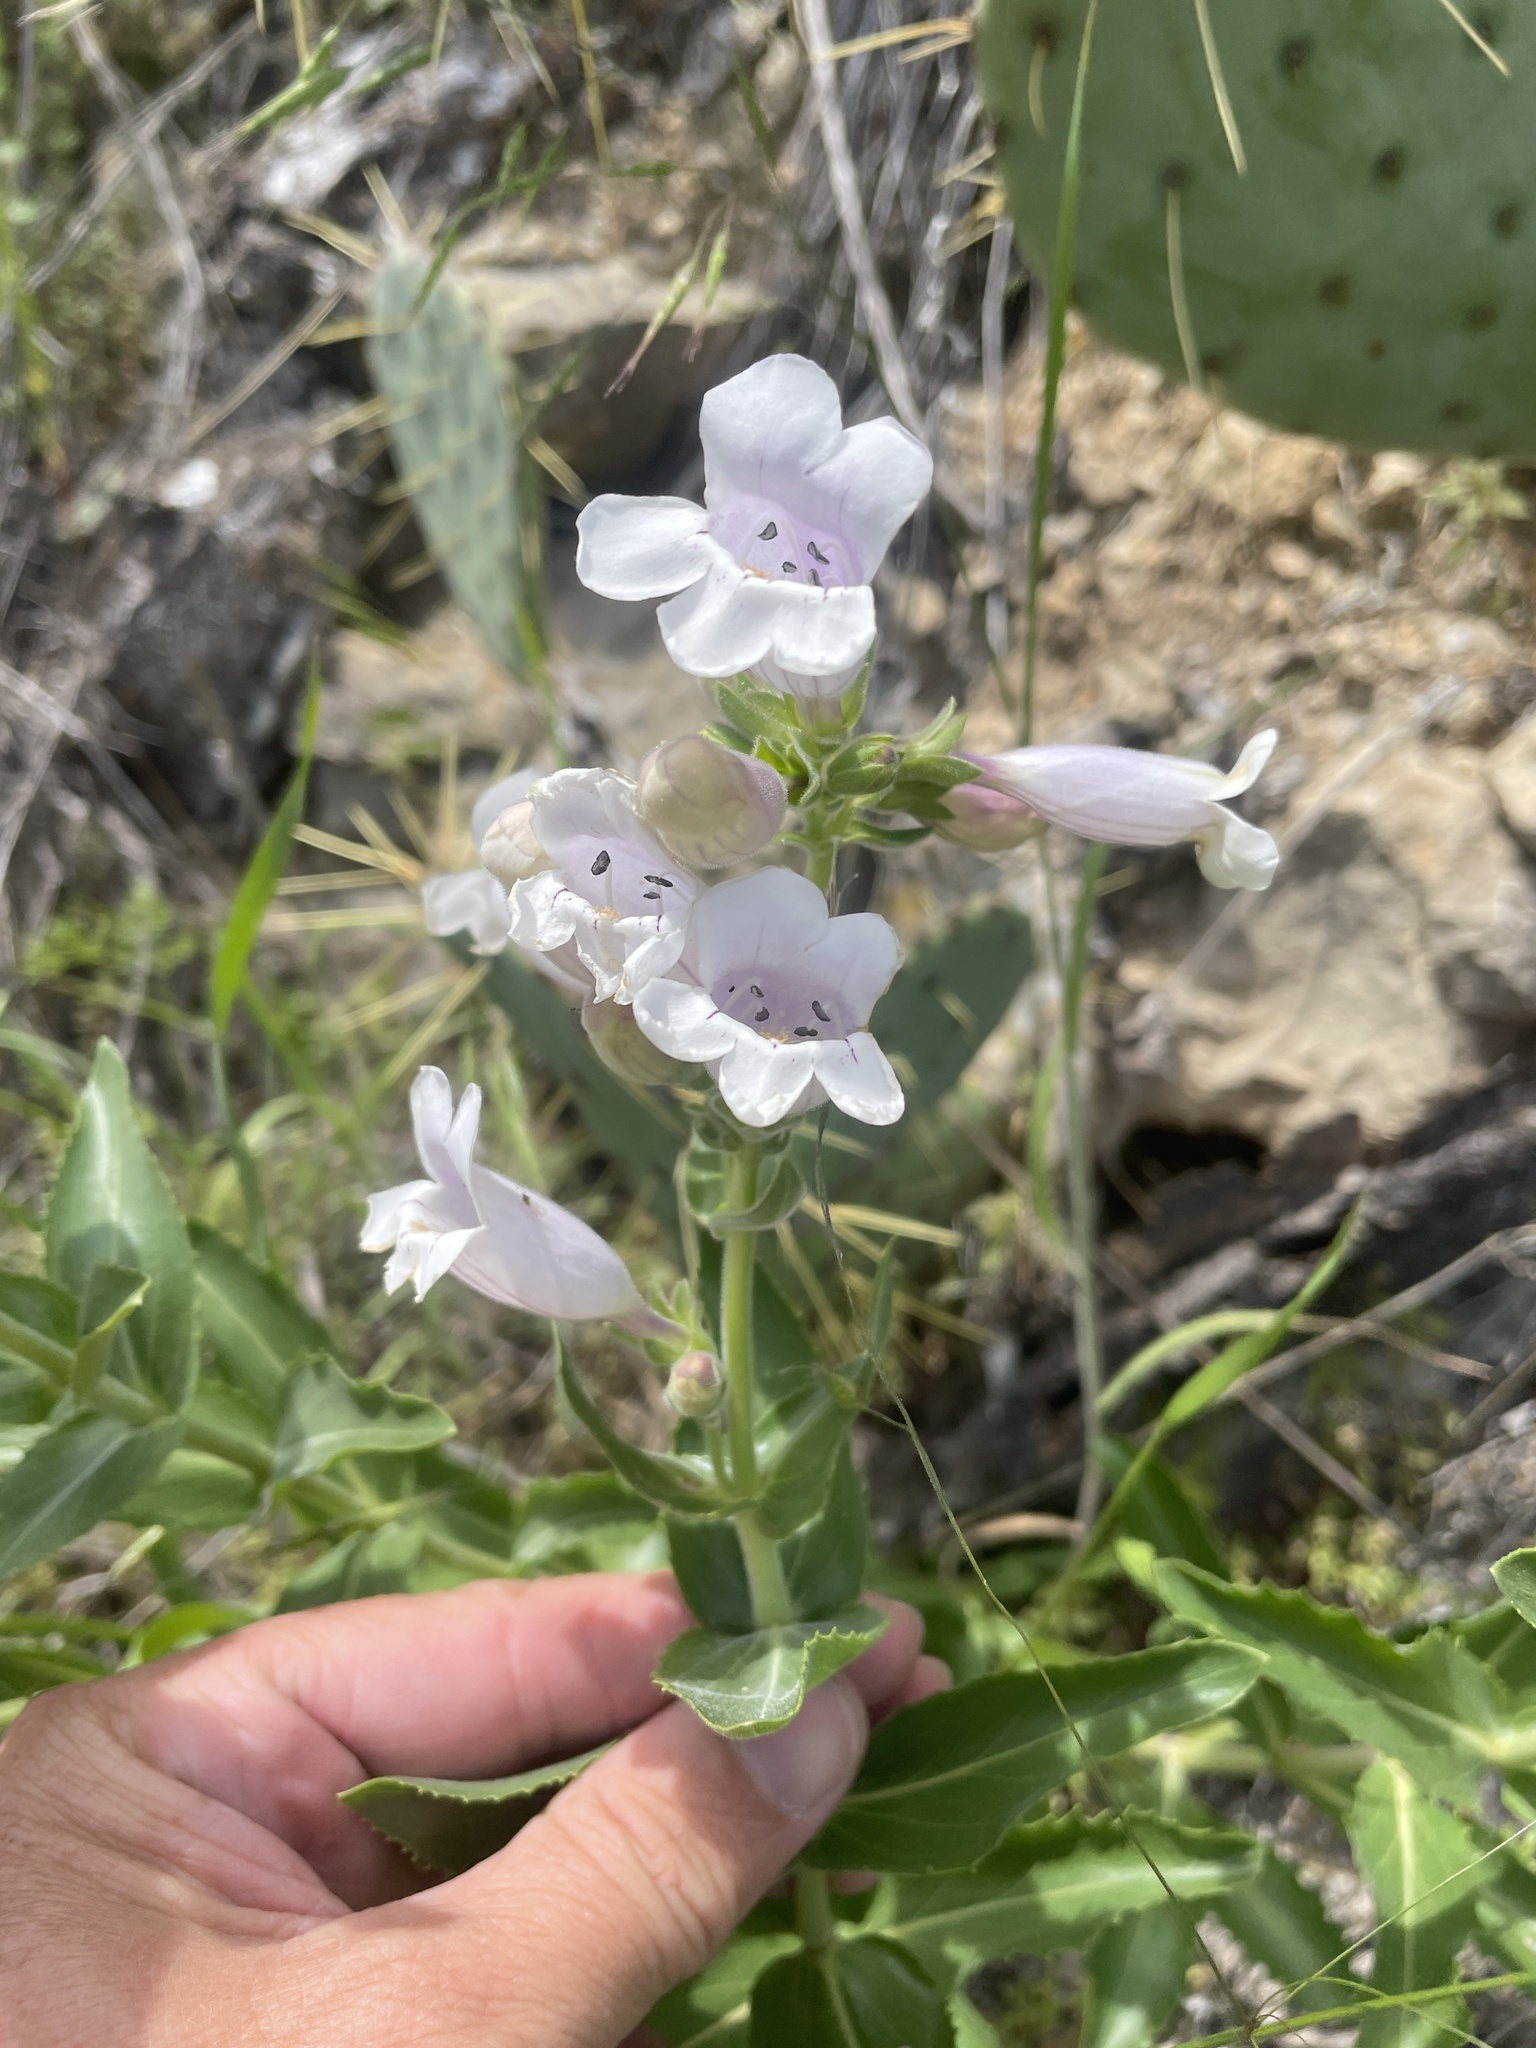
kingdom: Plantae
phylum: Tracheophyta
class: Magnoliopsida
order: Lamiales
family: Plantaginaceae
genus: Penstemon
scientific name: Penstemon cobaea
